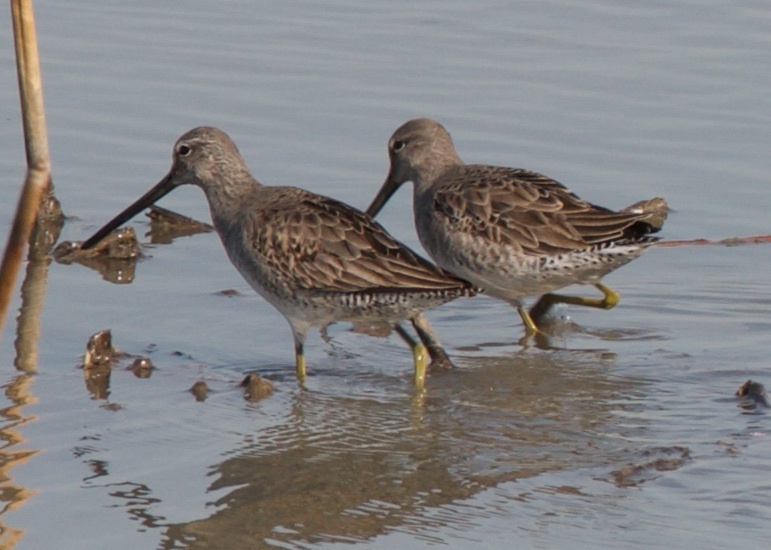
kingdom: Animalia
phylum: Chordata
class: Aves
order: Charadriiformes
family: Scolopacidae
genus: Limnodromus
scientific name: Limnodromus scolopaceus
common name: Long-billed dowitcher
